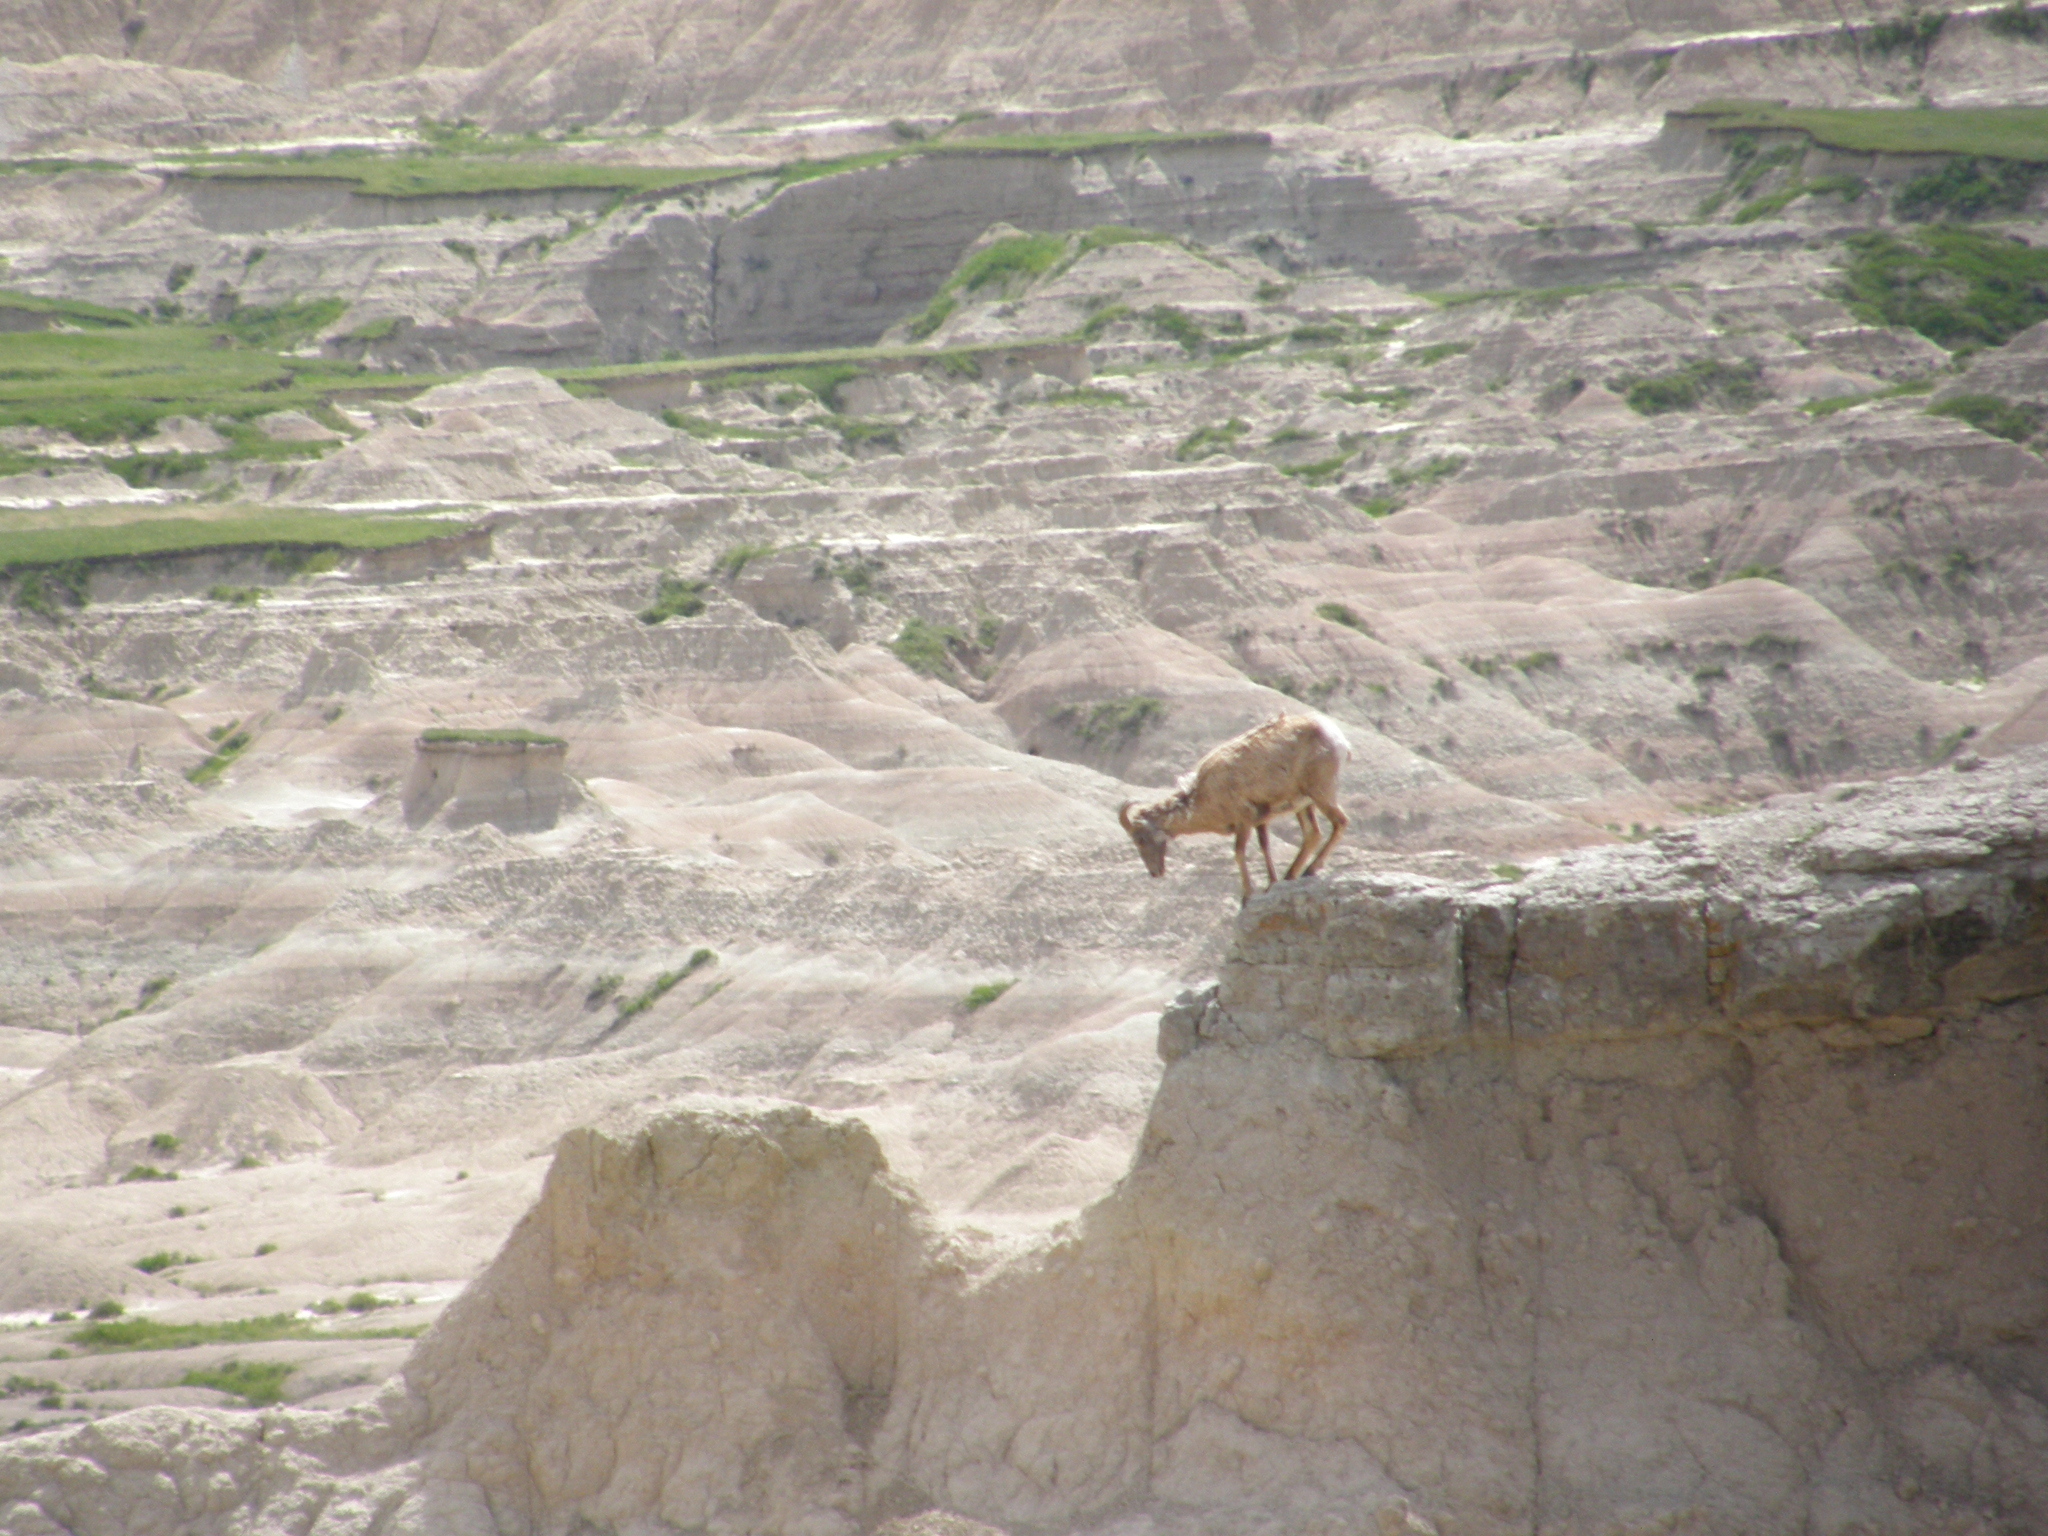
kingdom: Animalia
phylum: Chordata
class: Mammalia
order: Artiodactyla
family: Bovidae
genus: Ovis
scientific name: Ovis canadensis
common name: Bighorn sheep
